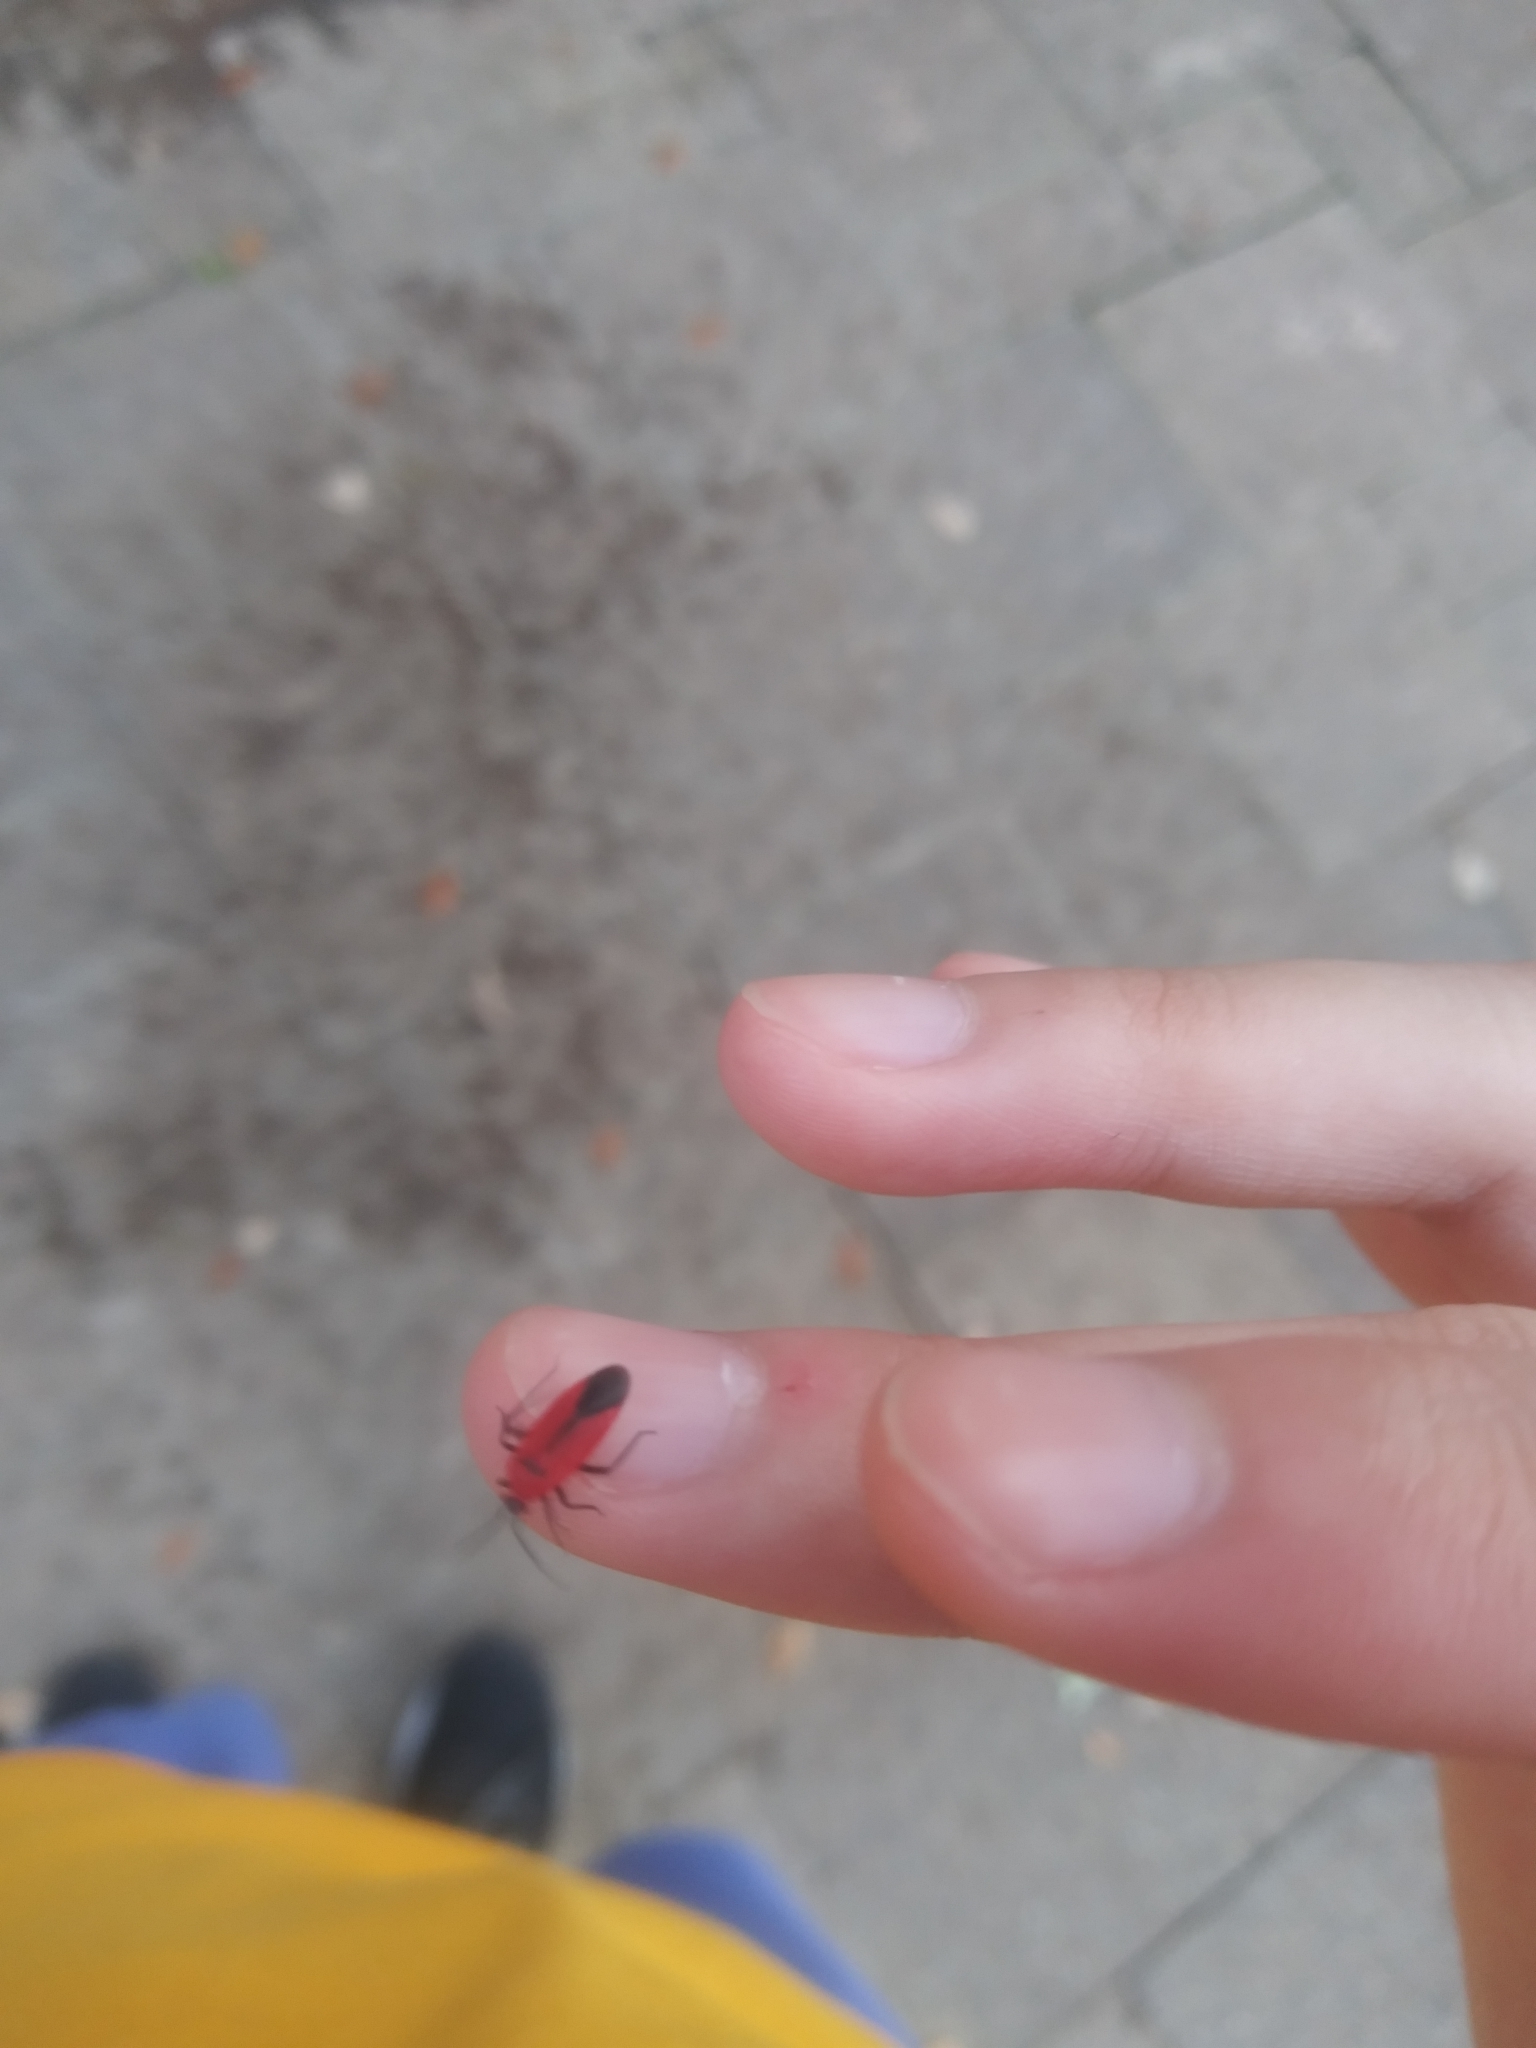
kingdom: Animalia
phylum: Arthropoda
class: Insecta
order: Hemiptera
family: Miridae
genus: Lopidea
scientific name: Lopidea major
